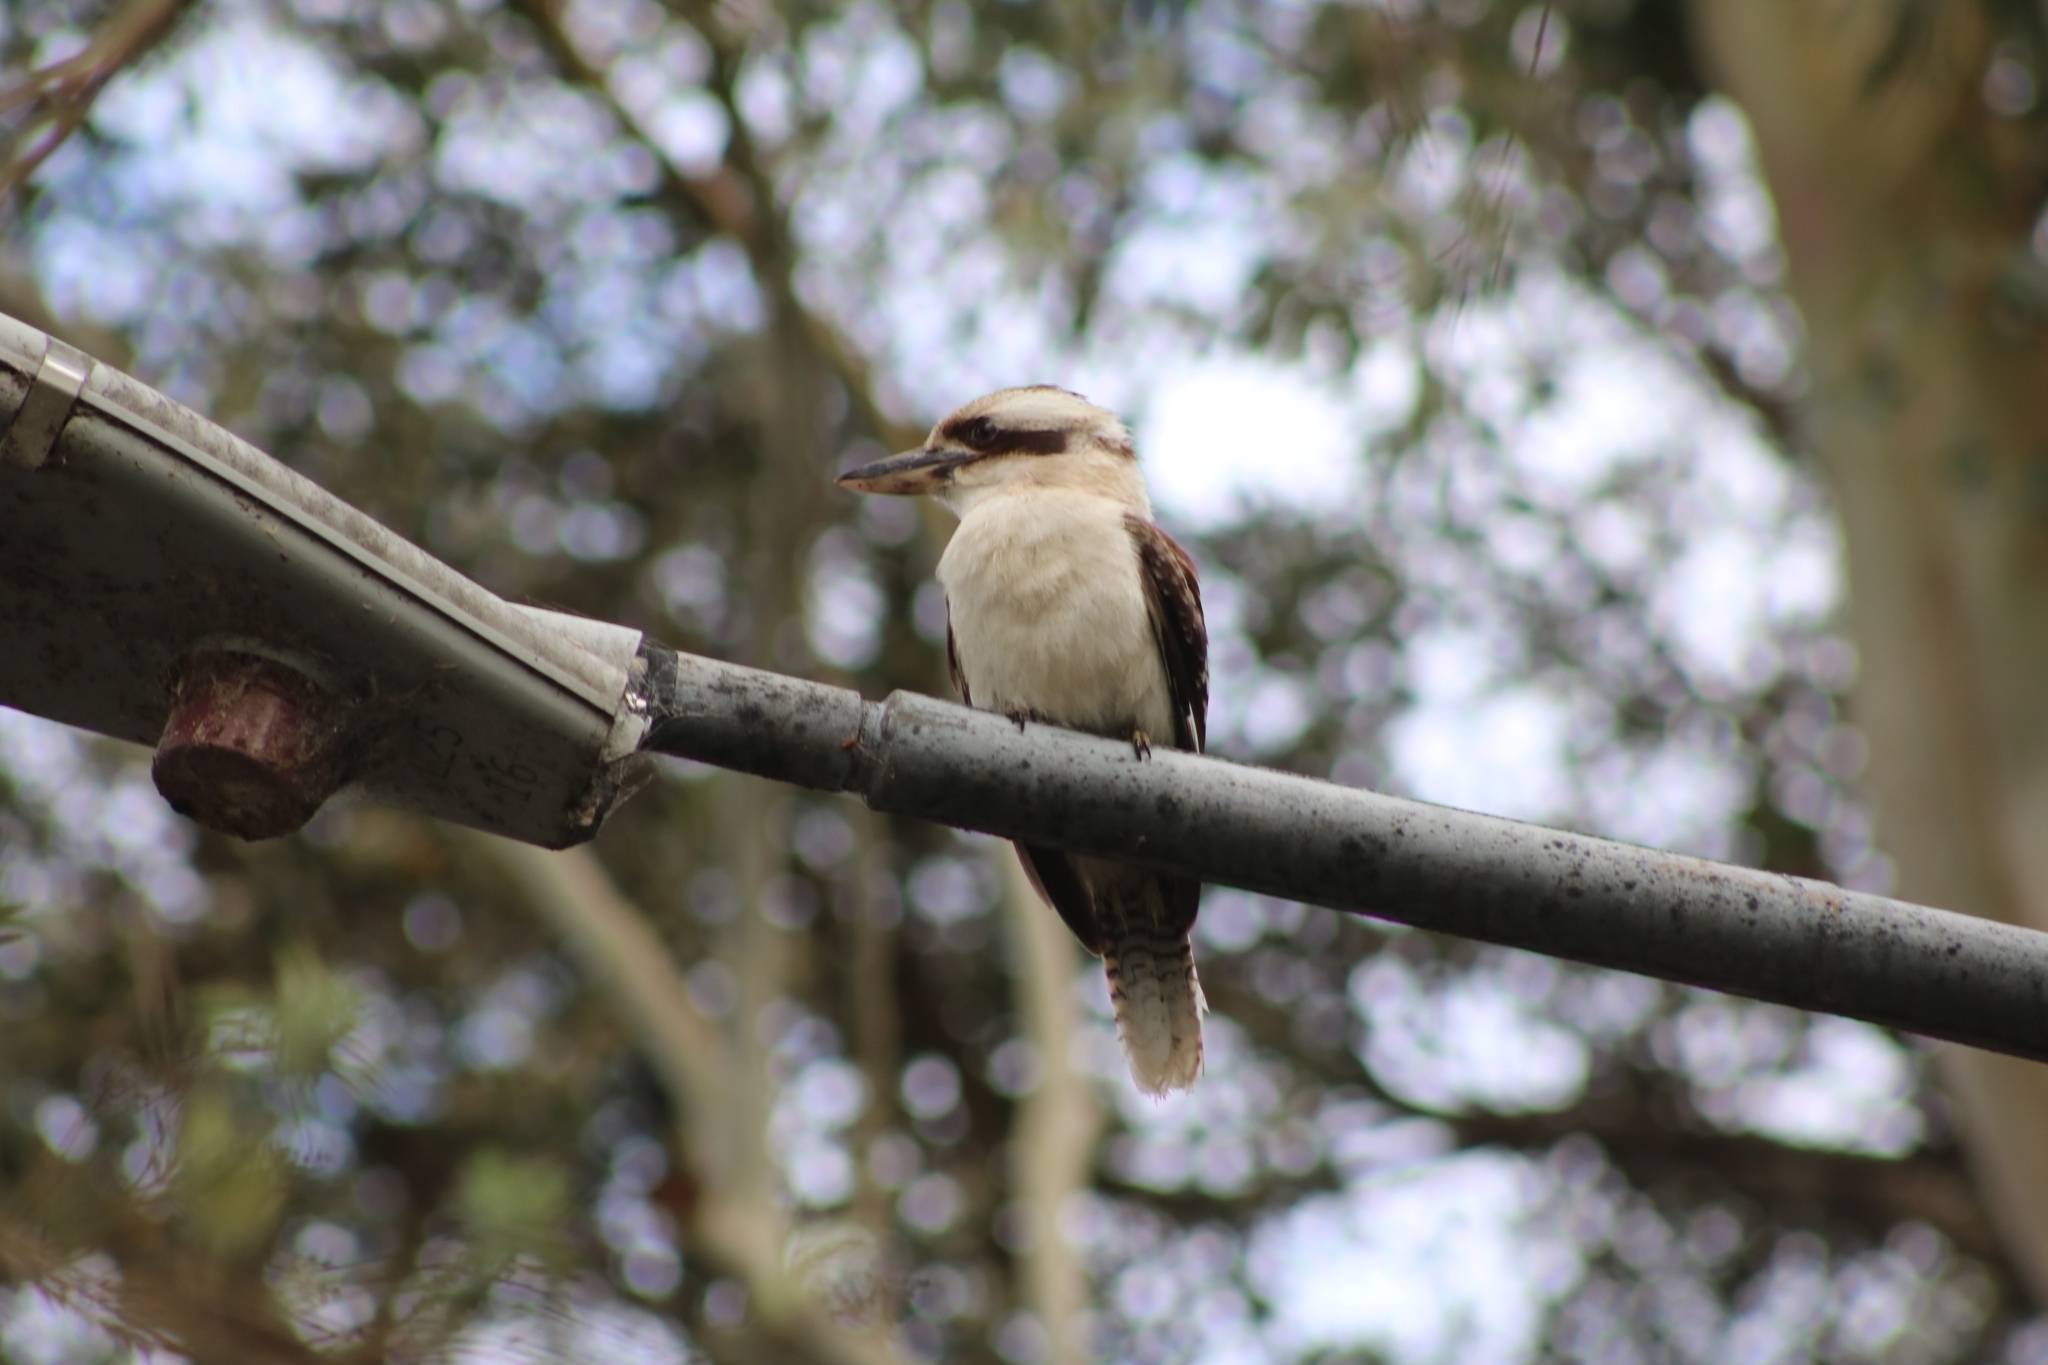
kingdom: Animalia
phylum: Chordata
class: Aves
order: Coraciiformes
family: Alcedinidae
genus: Dacelo
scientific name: Dacelo novaeguineae
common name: Laughing kookaburra
